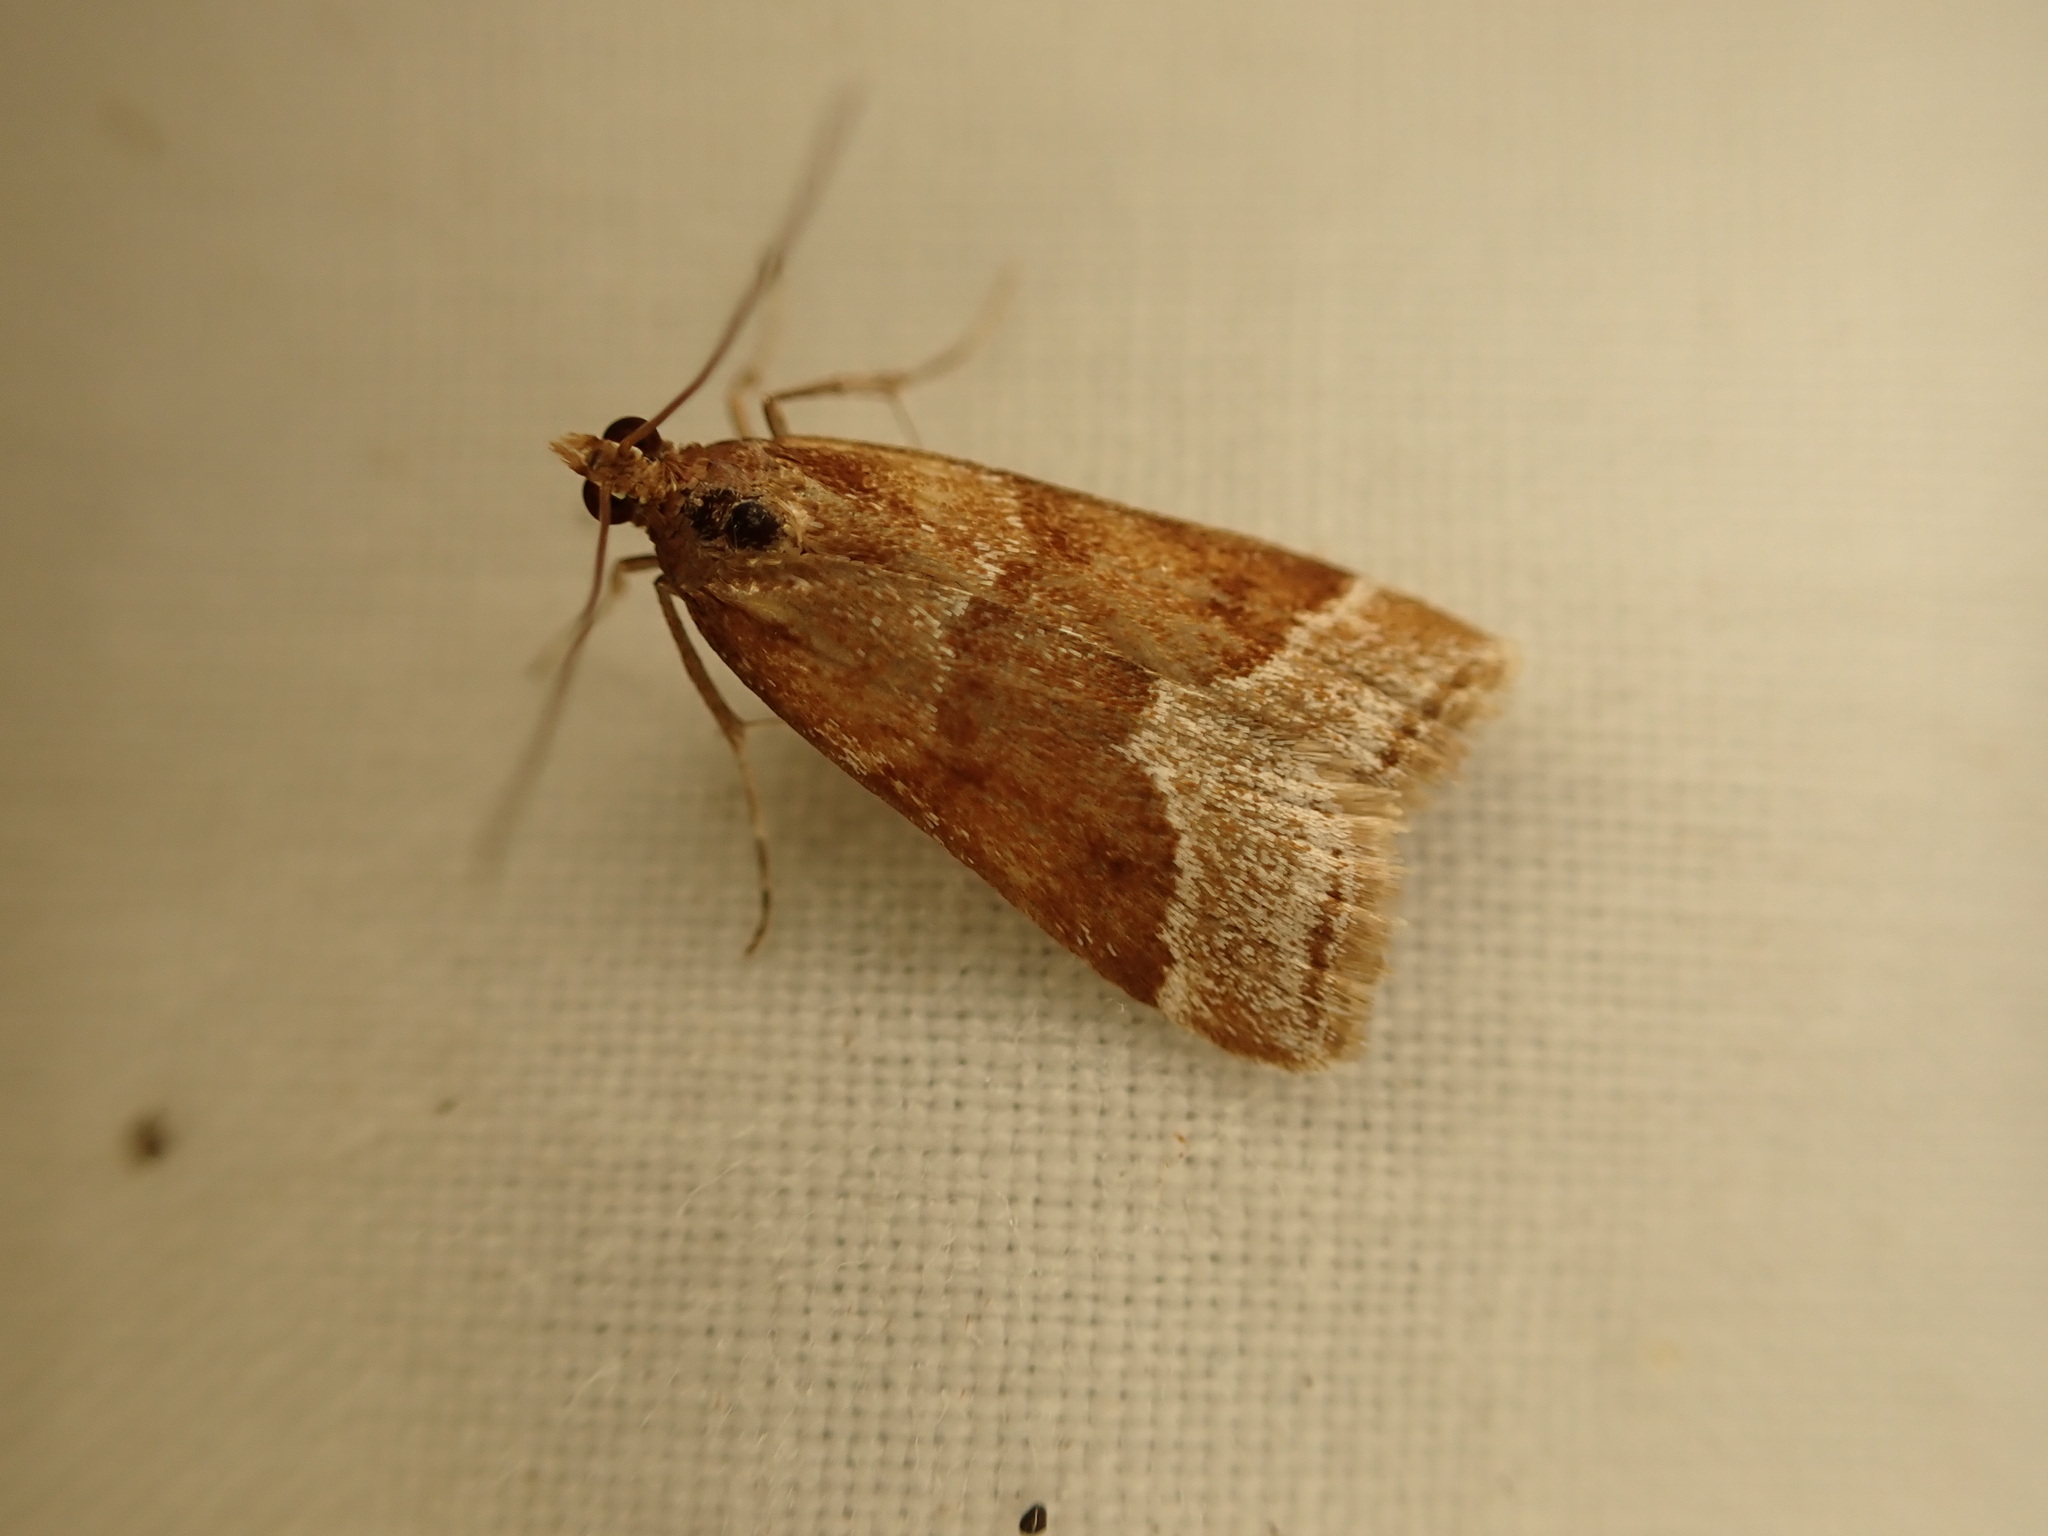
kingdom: Animalia
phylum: Arthropoda
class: Insecta
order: Lepidoptera
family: Crambidae
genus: Eudonia
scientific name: Eudonia feredayi
